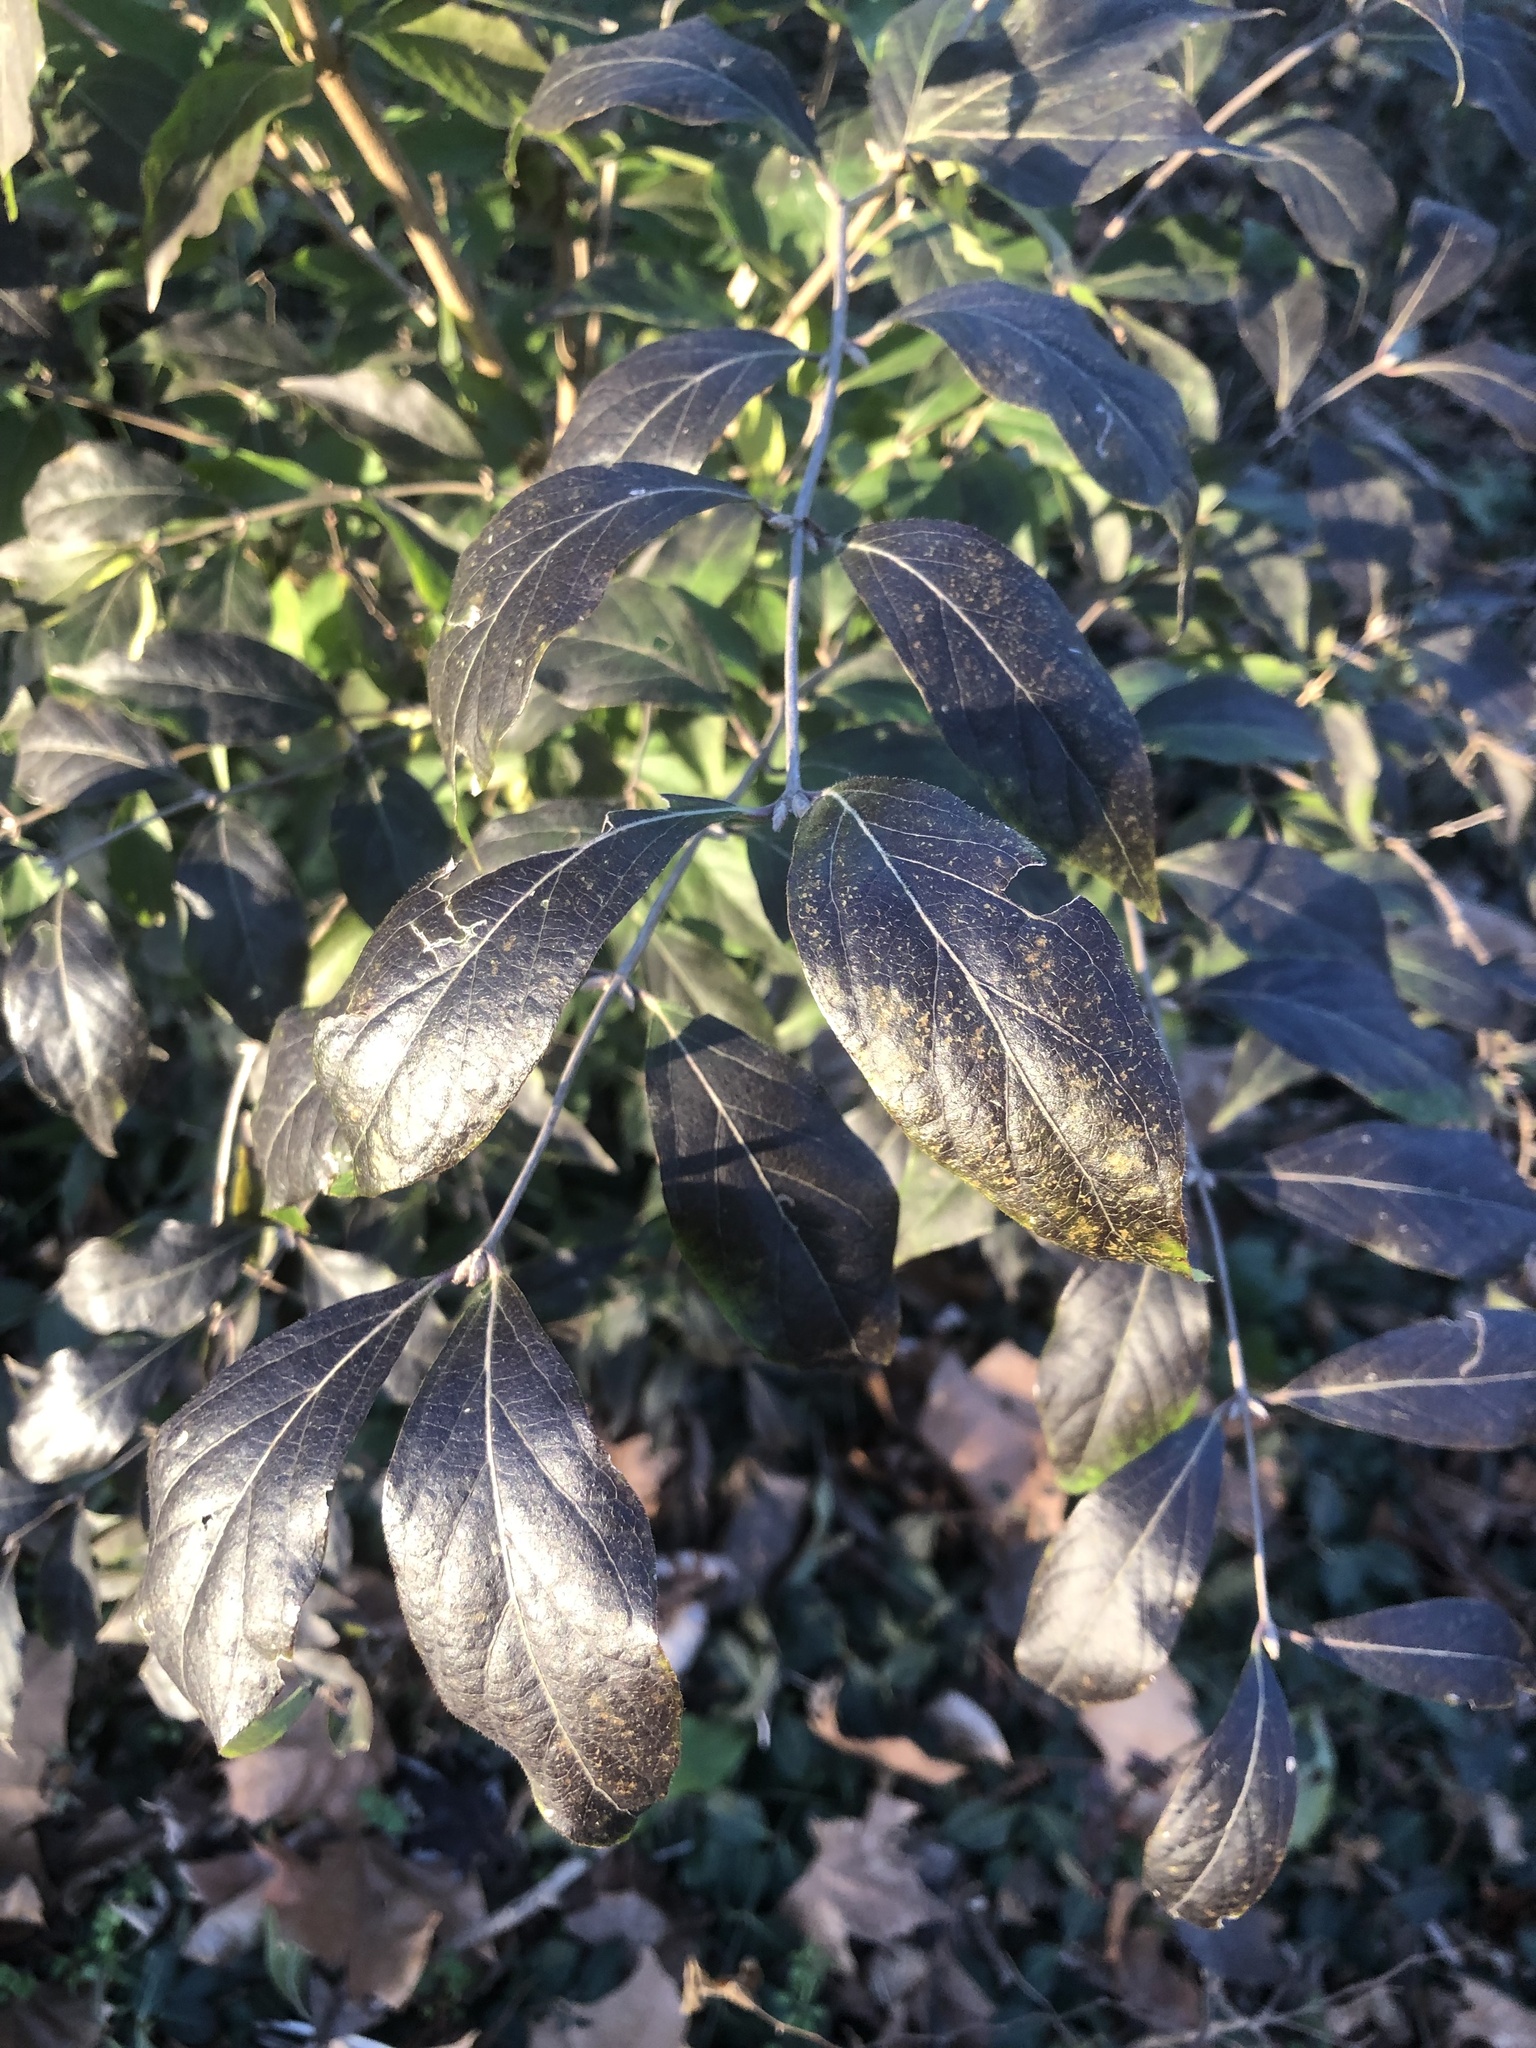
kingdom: Plantae
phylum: Tracheophyta
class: Magnoliopsida
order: Dipsacales
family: Caprifoliaceae
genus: Lonicera
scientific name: Lonicera maackii
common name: Amur honeysuckle
